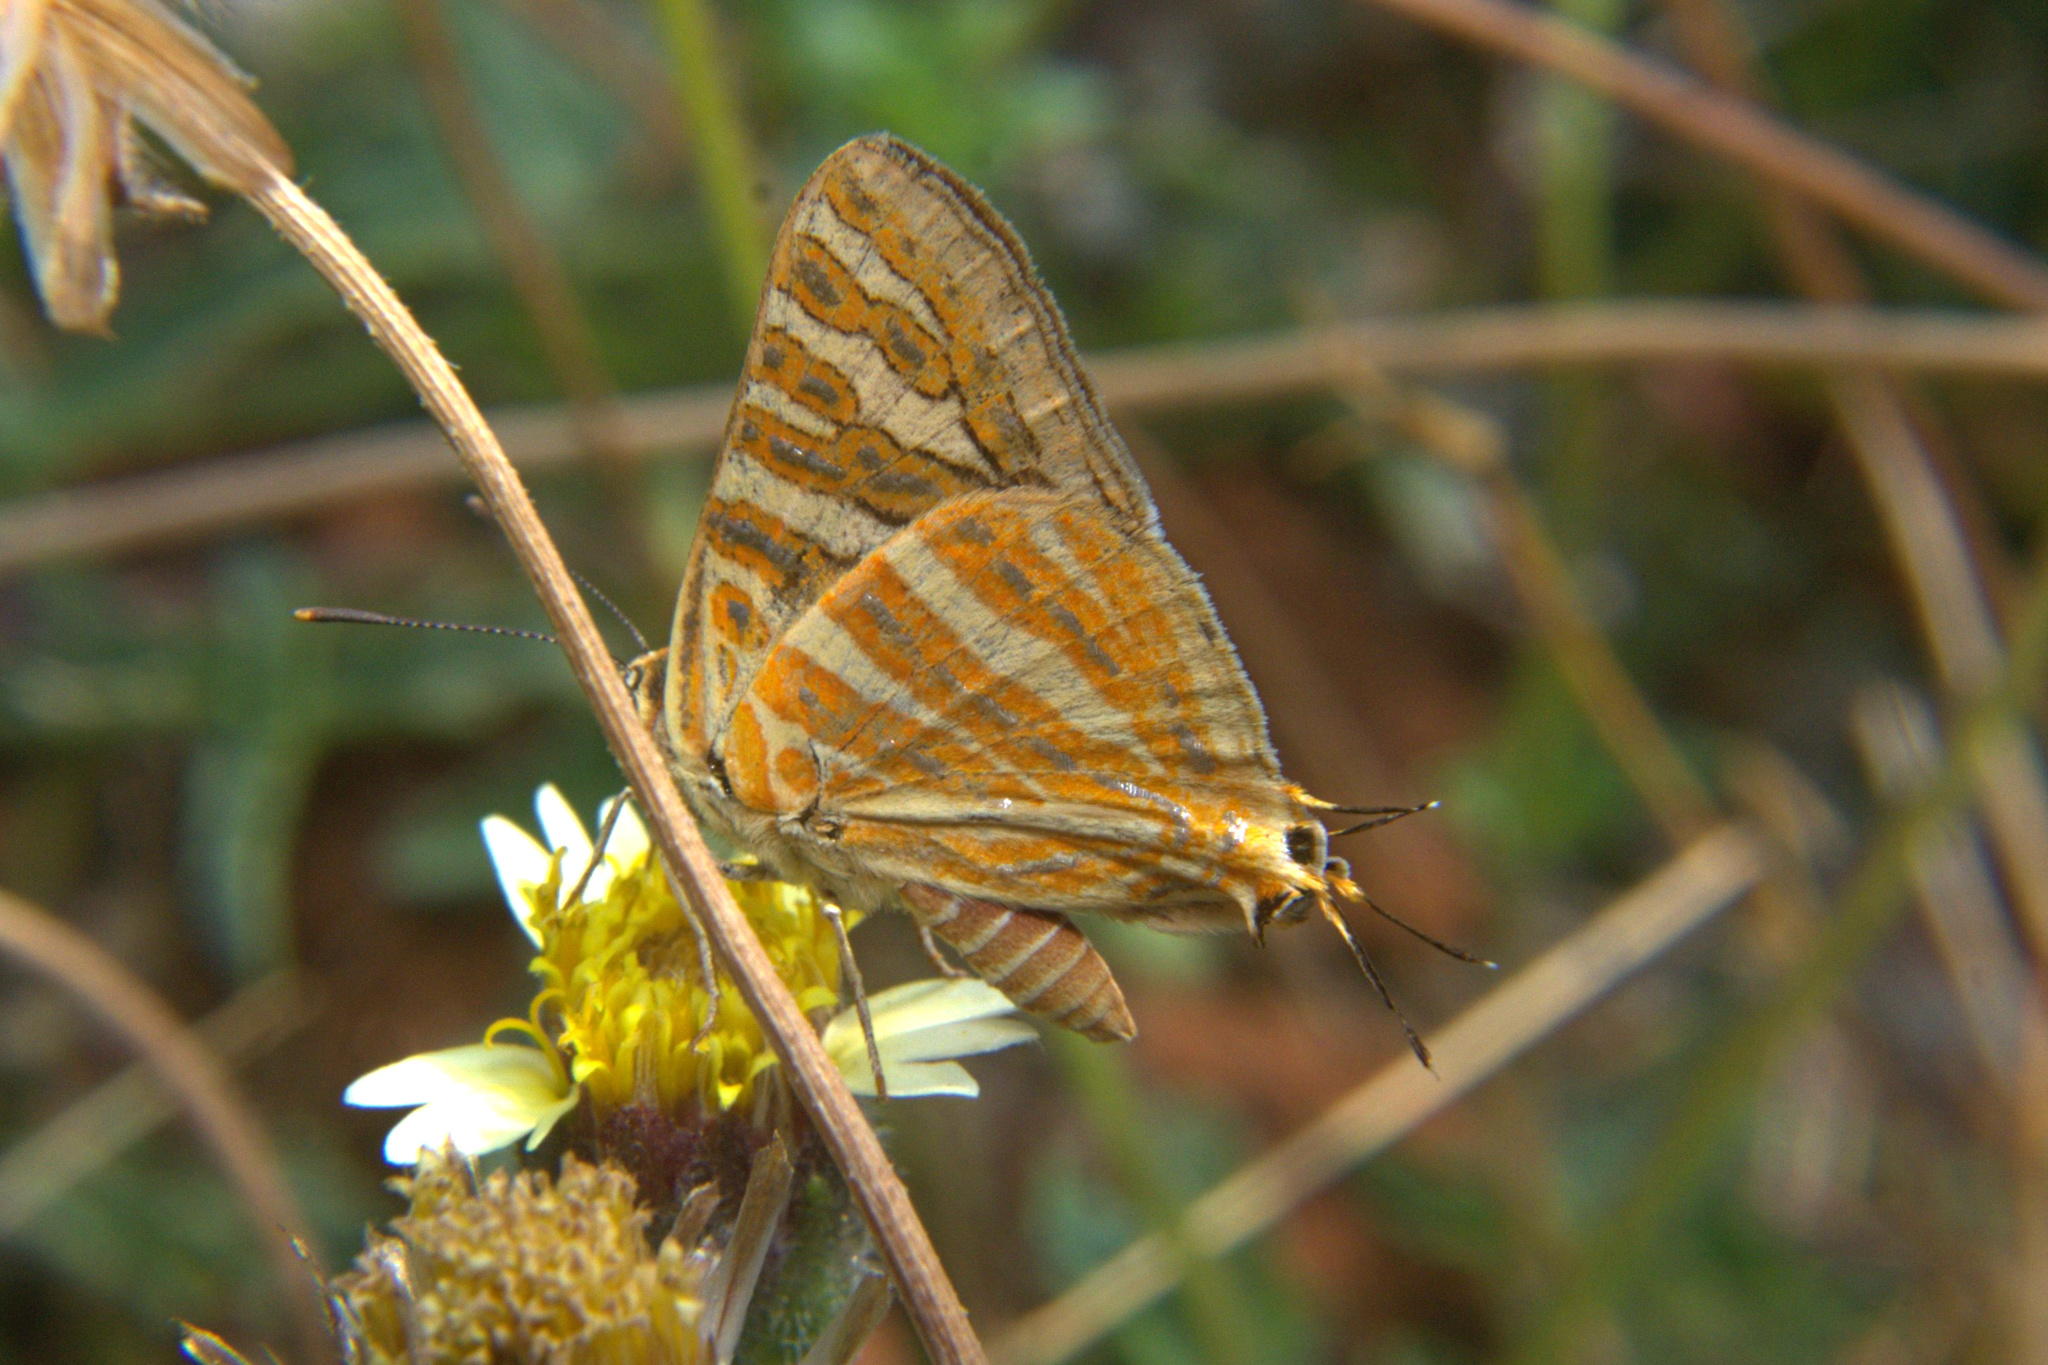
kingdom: Animalia
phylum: Arthropoda
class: Insecta
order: Lepidoptera
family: Lycaenidae
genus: Cigaritis
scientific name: Cigaritis vulcanus
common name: Common silverline
